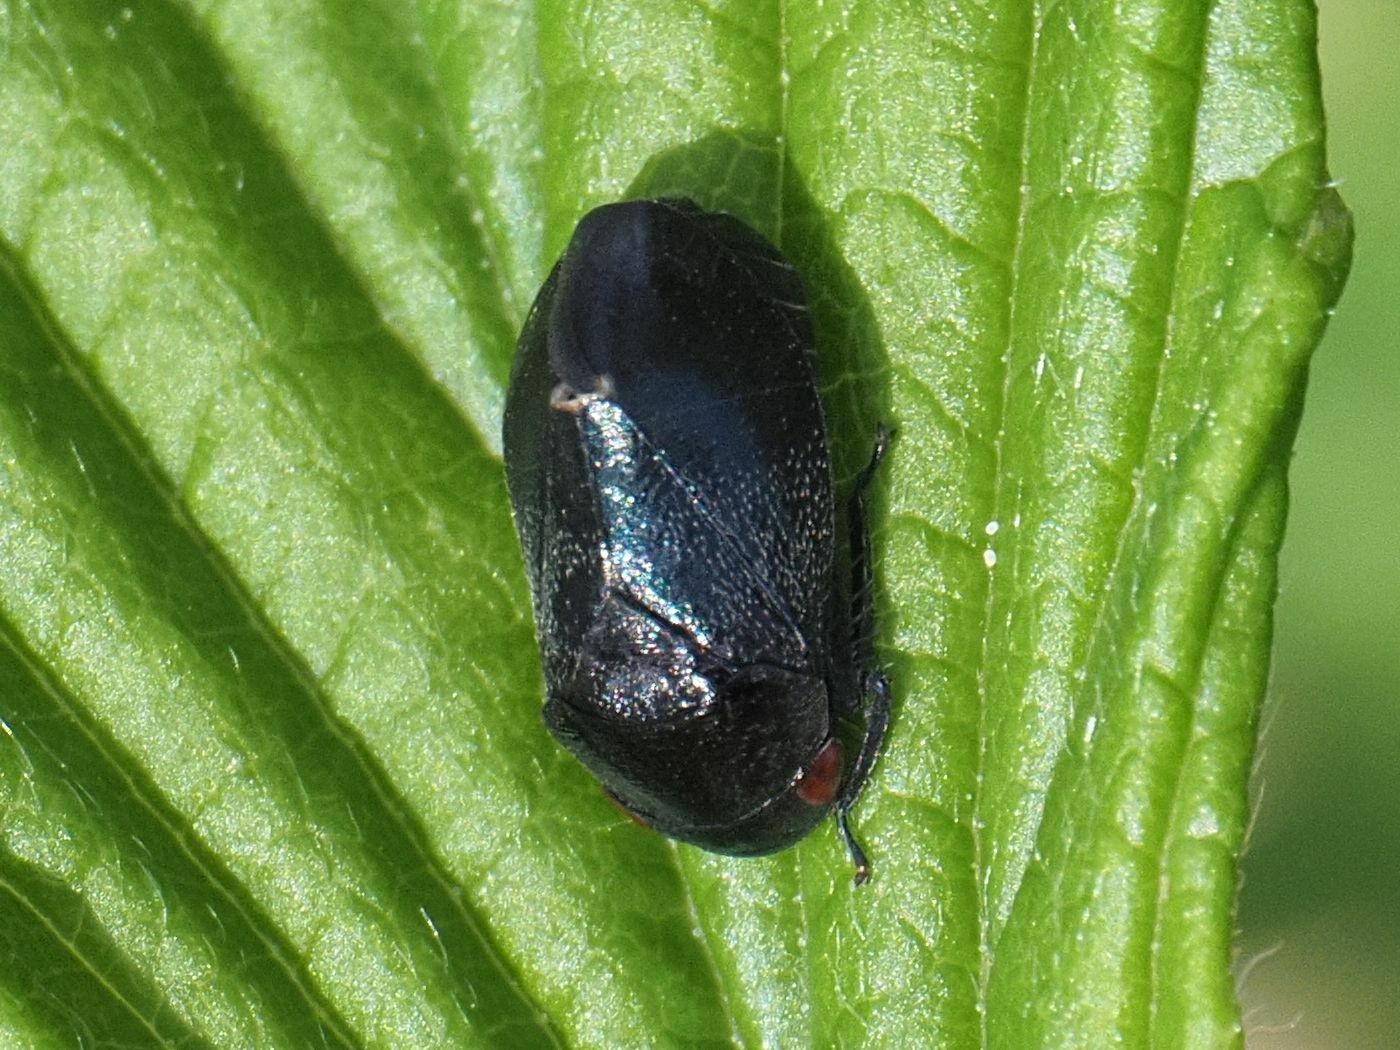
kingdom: Animalia
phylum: Arthropoda
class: Insecta
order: Hemiptera
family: Cicadellidae
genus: Penthimia
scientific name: Penthimia nigra
